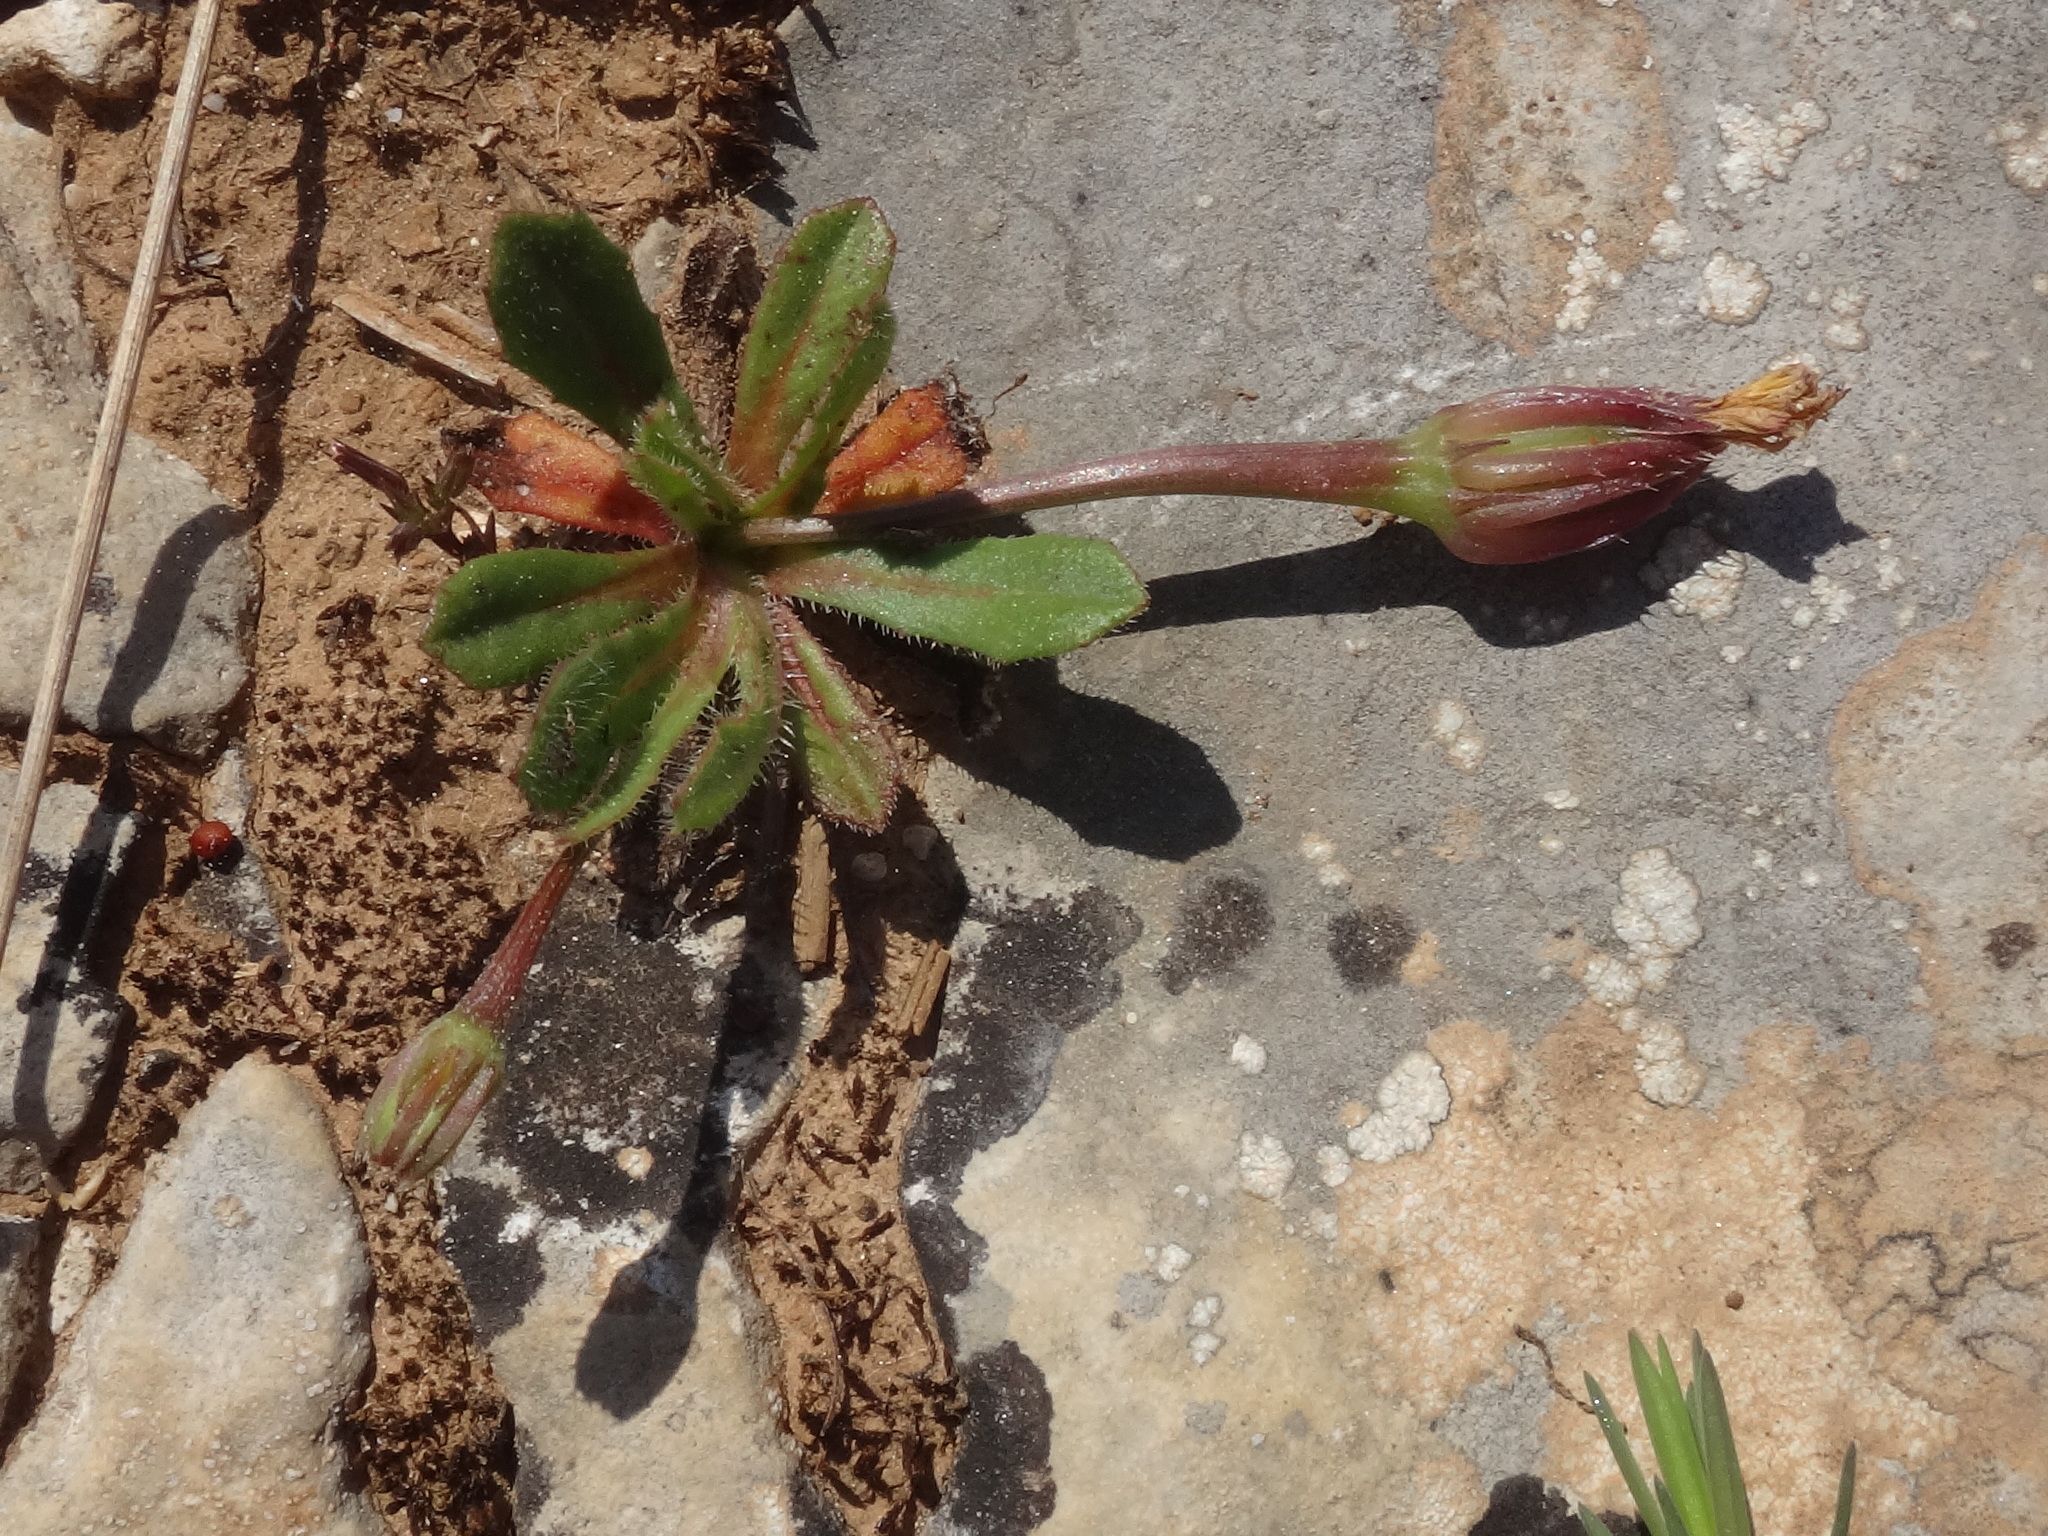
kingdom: Plantae
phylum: Tracheophyta
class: Magnoliopsida
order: Asterales
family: Asteraceae
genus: Hedypnois
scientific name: Hedypnois rhagadioloides
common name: Cretan weed
